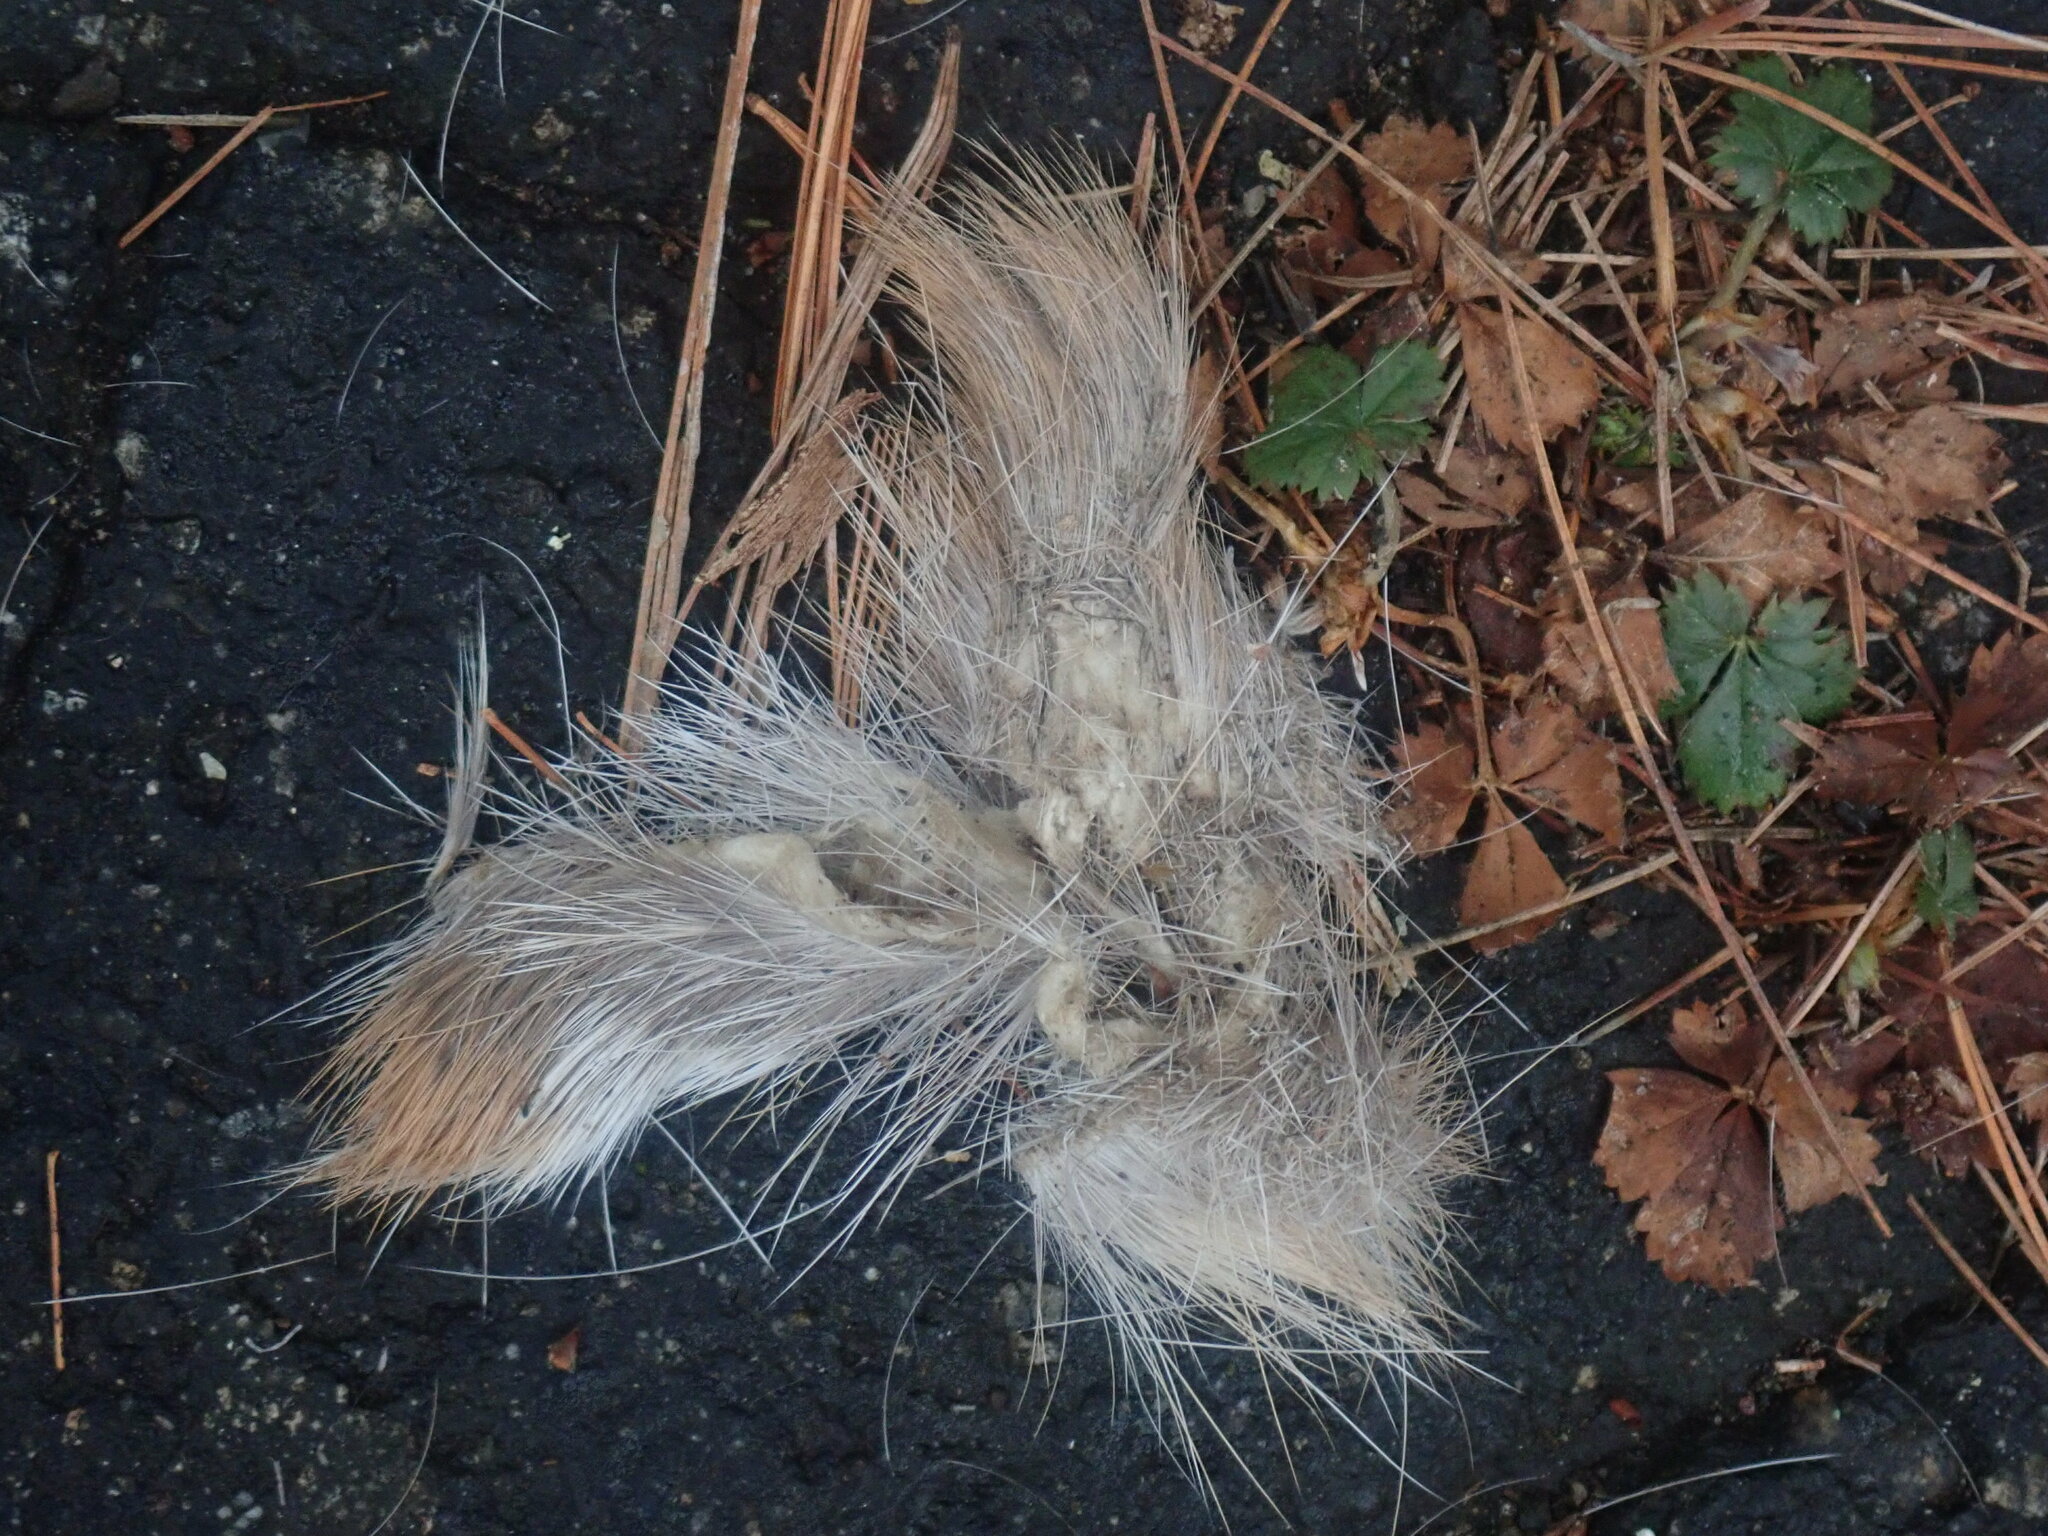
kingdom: Animalia
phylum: Chordata
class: Mammalia
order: Artiodactyla
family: Cervidae
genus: Odocoileus
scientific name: Odocoileus virginianus
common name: White-tailed deer
